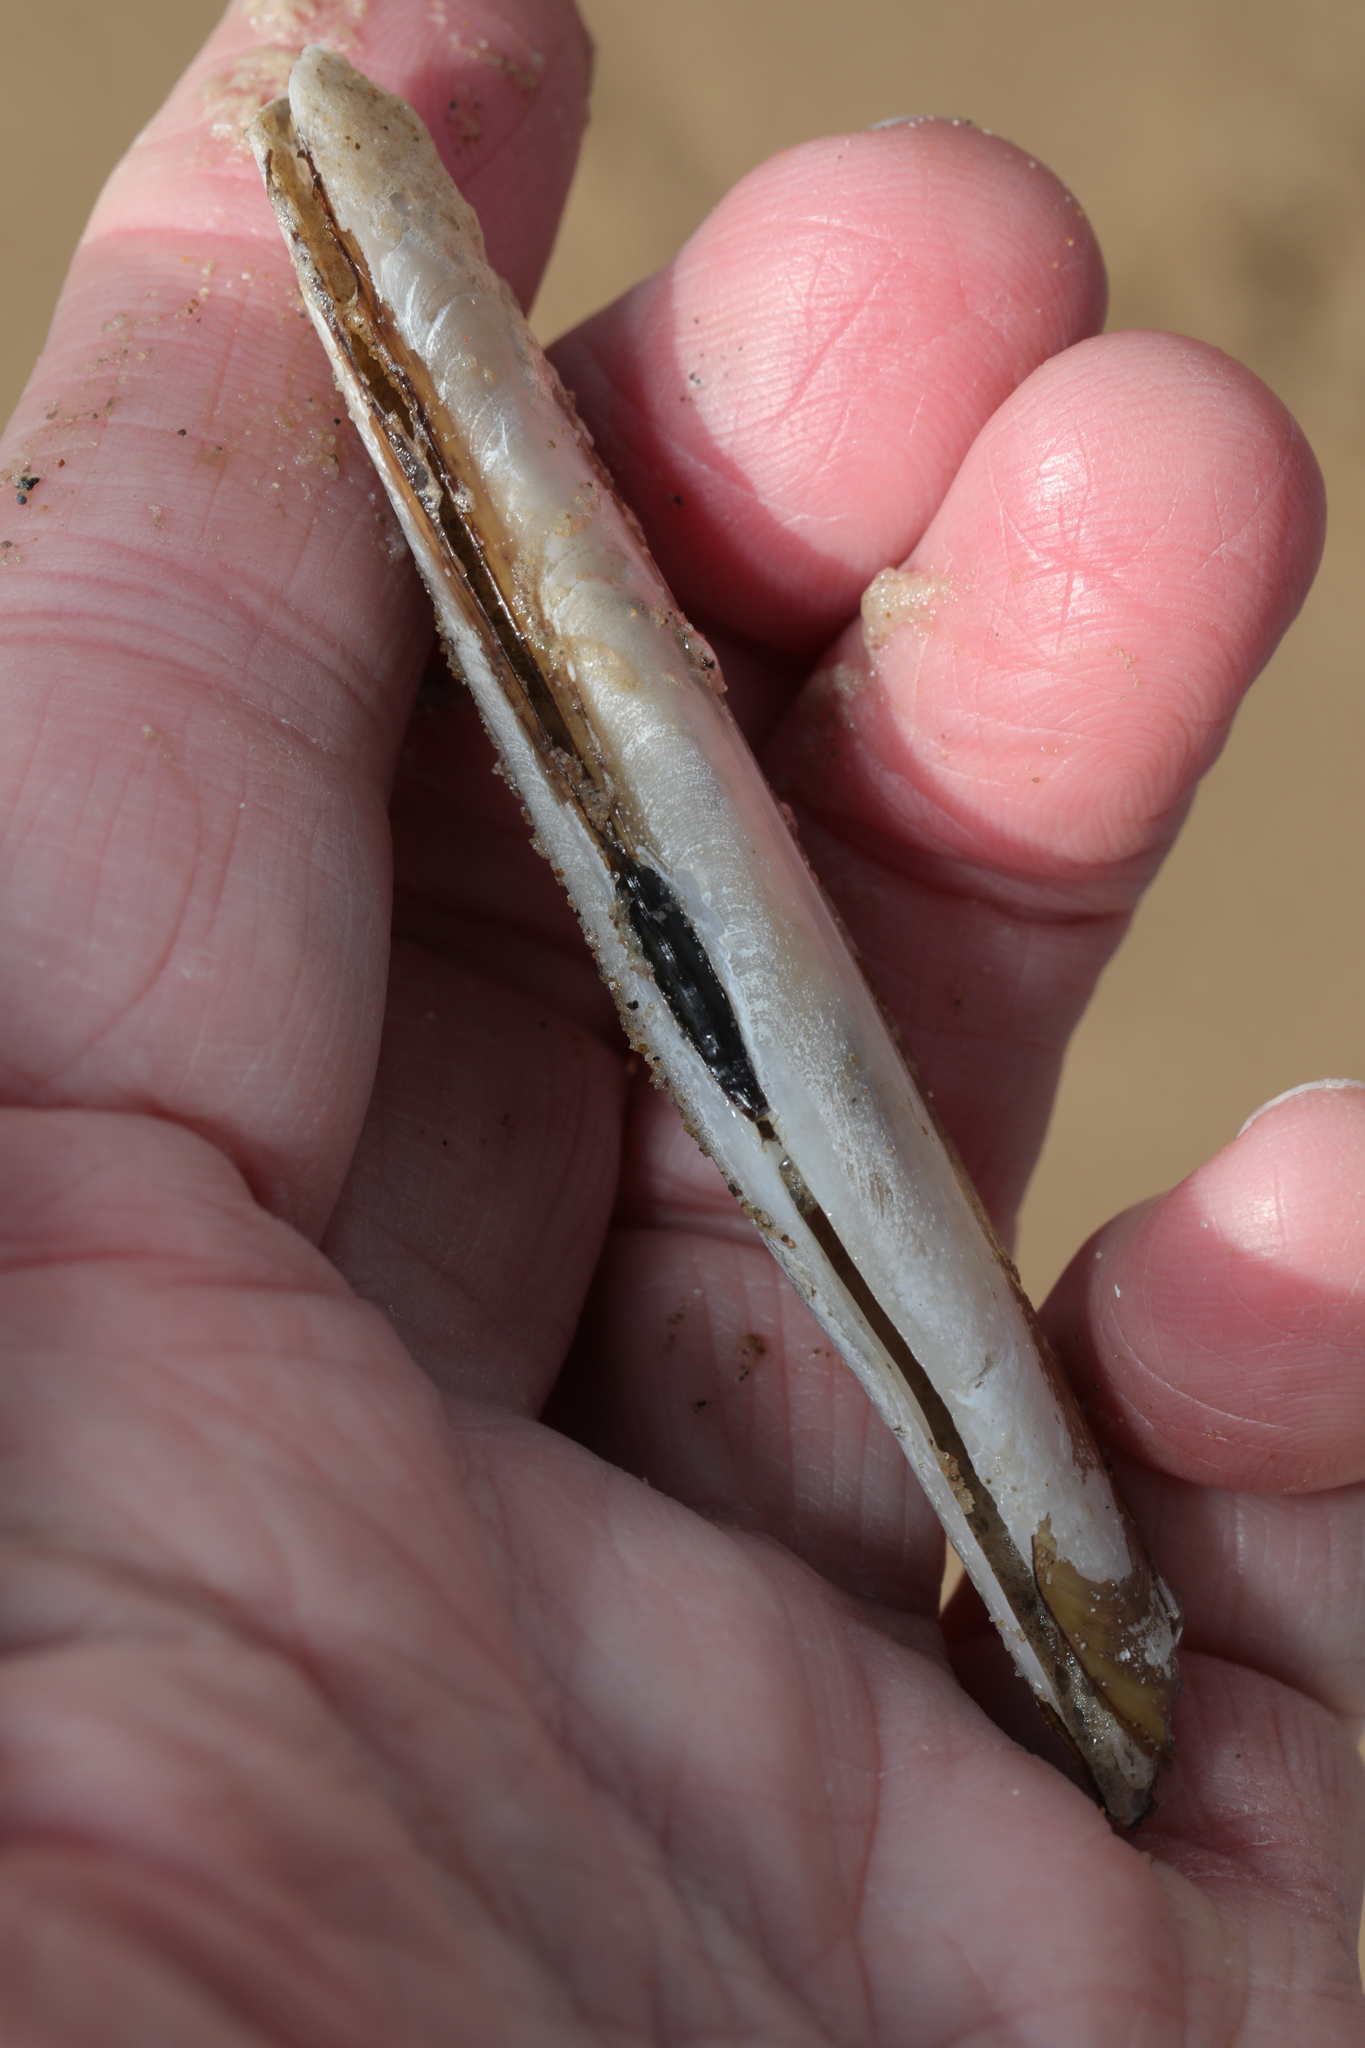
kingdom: Animalia
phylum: Mollusca
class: Bivalvia
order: Adapedonta
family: Pharidae
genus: Pharus
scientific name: Pharus legumen
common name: Bean razor clam
